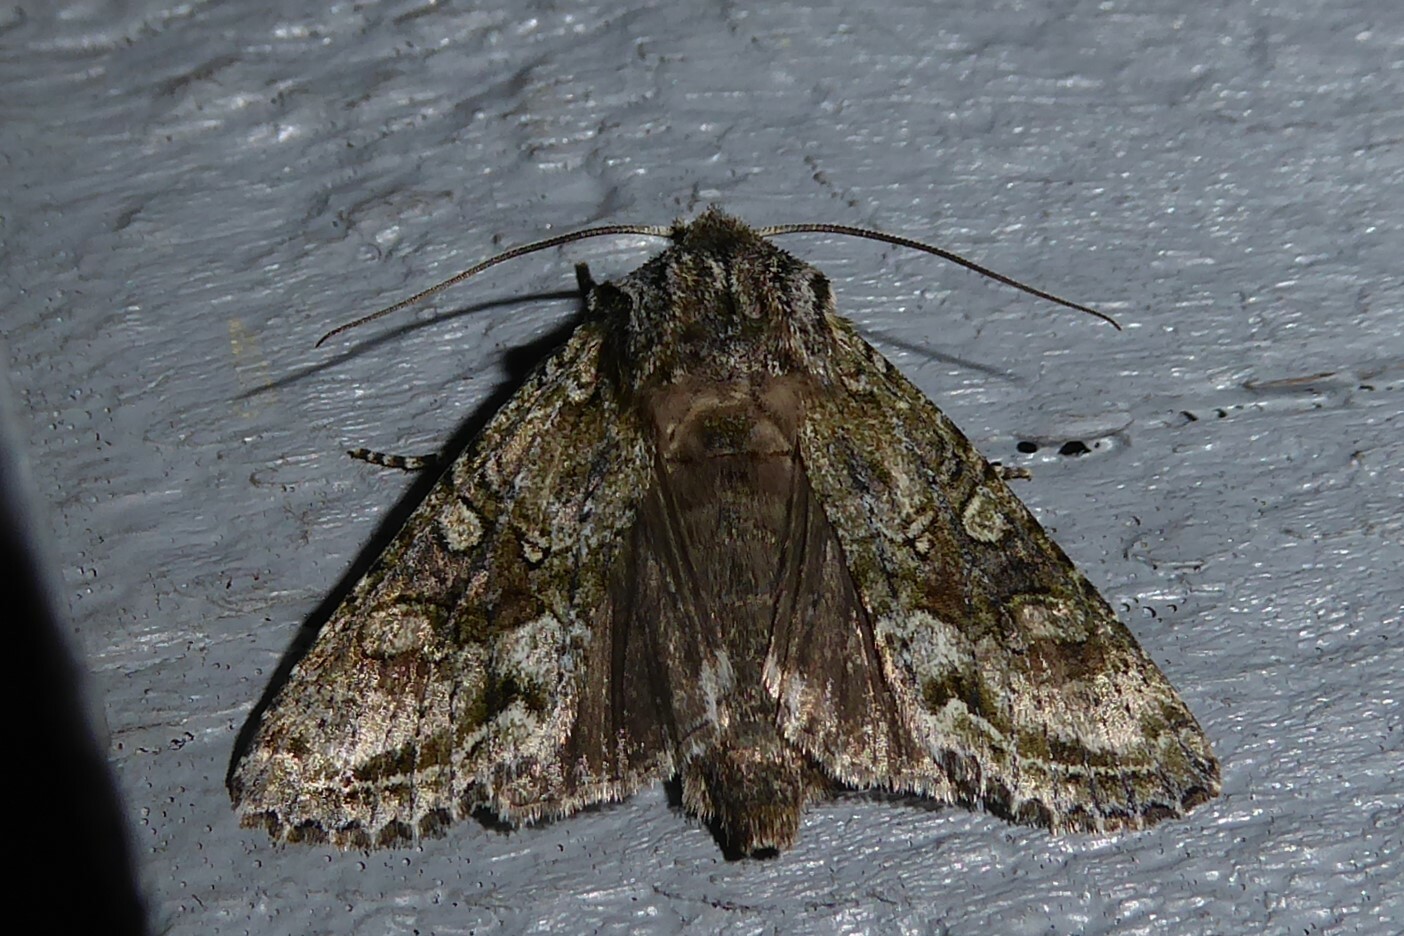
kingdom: Animalia
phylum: Arthropoda
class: Insecta
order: Lepidoptera
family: Noctuidae
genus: Ichneutica
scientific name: Ichneutica mutans
